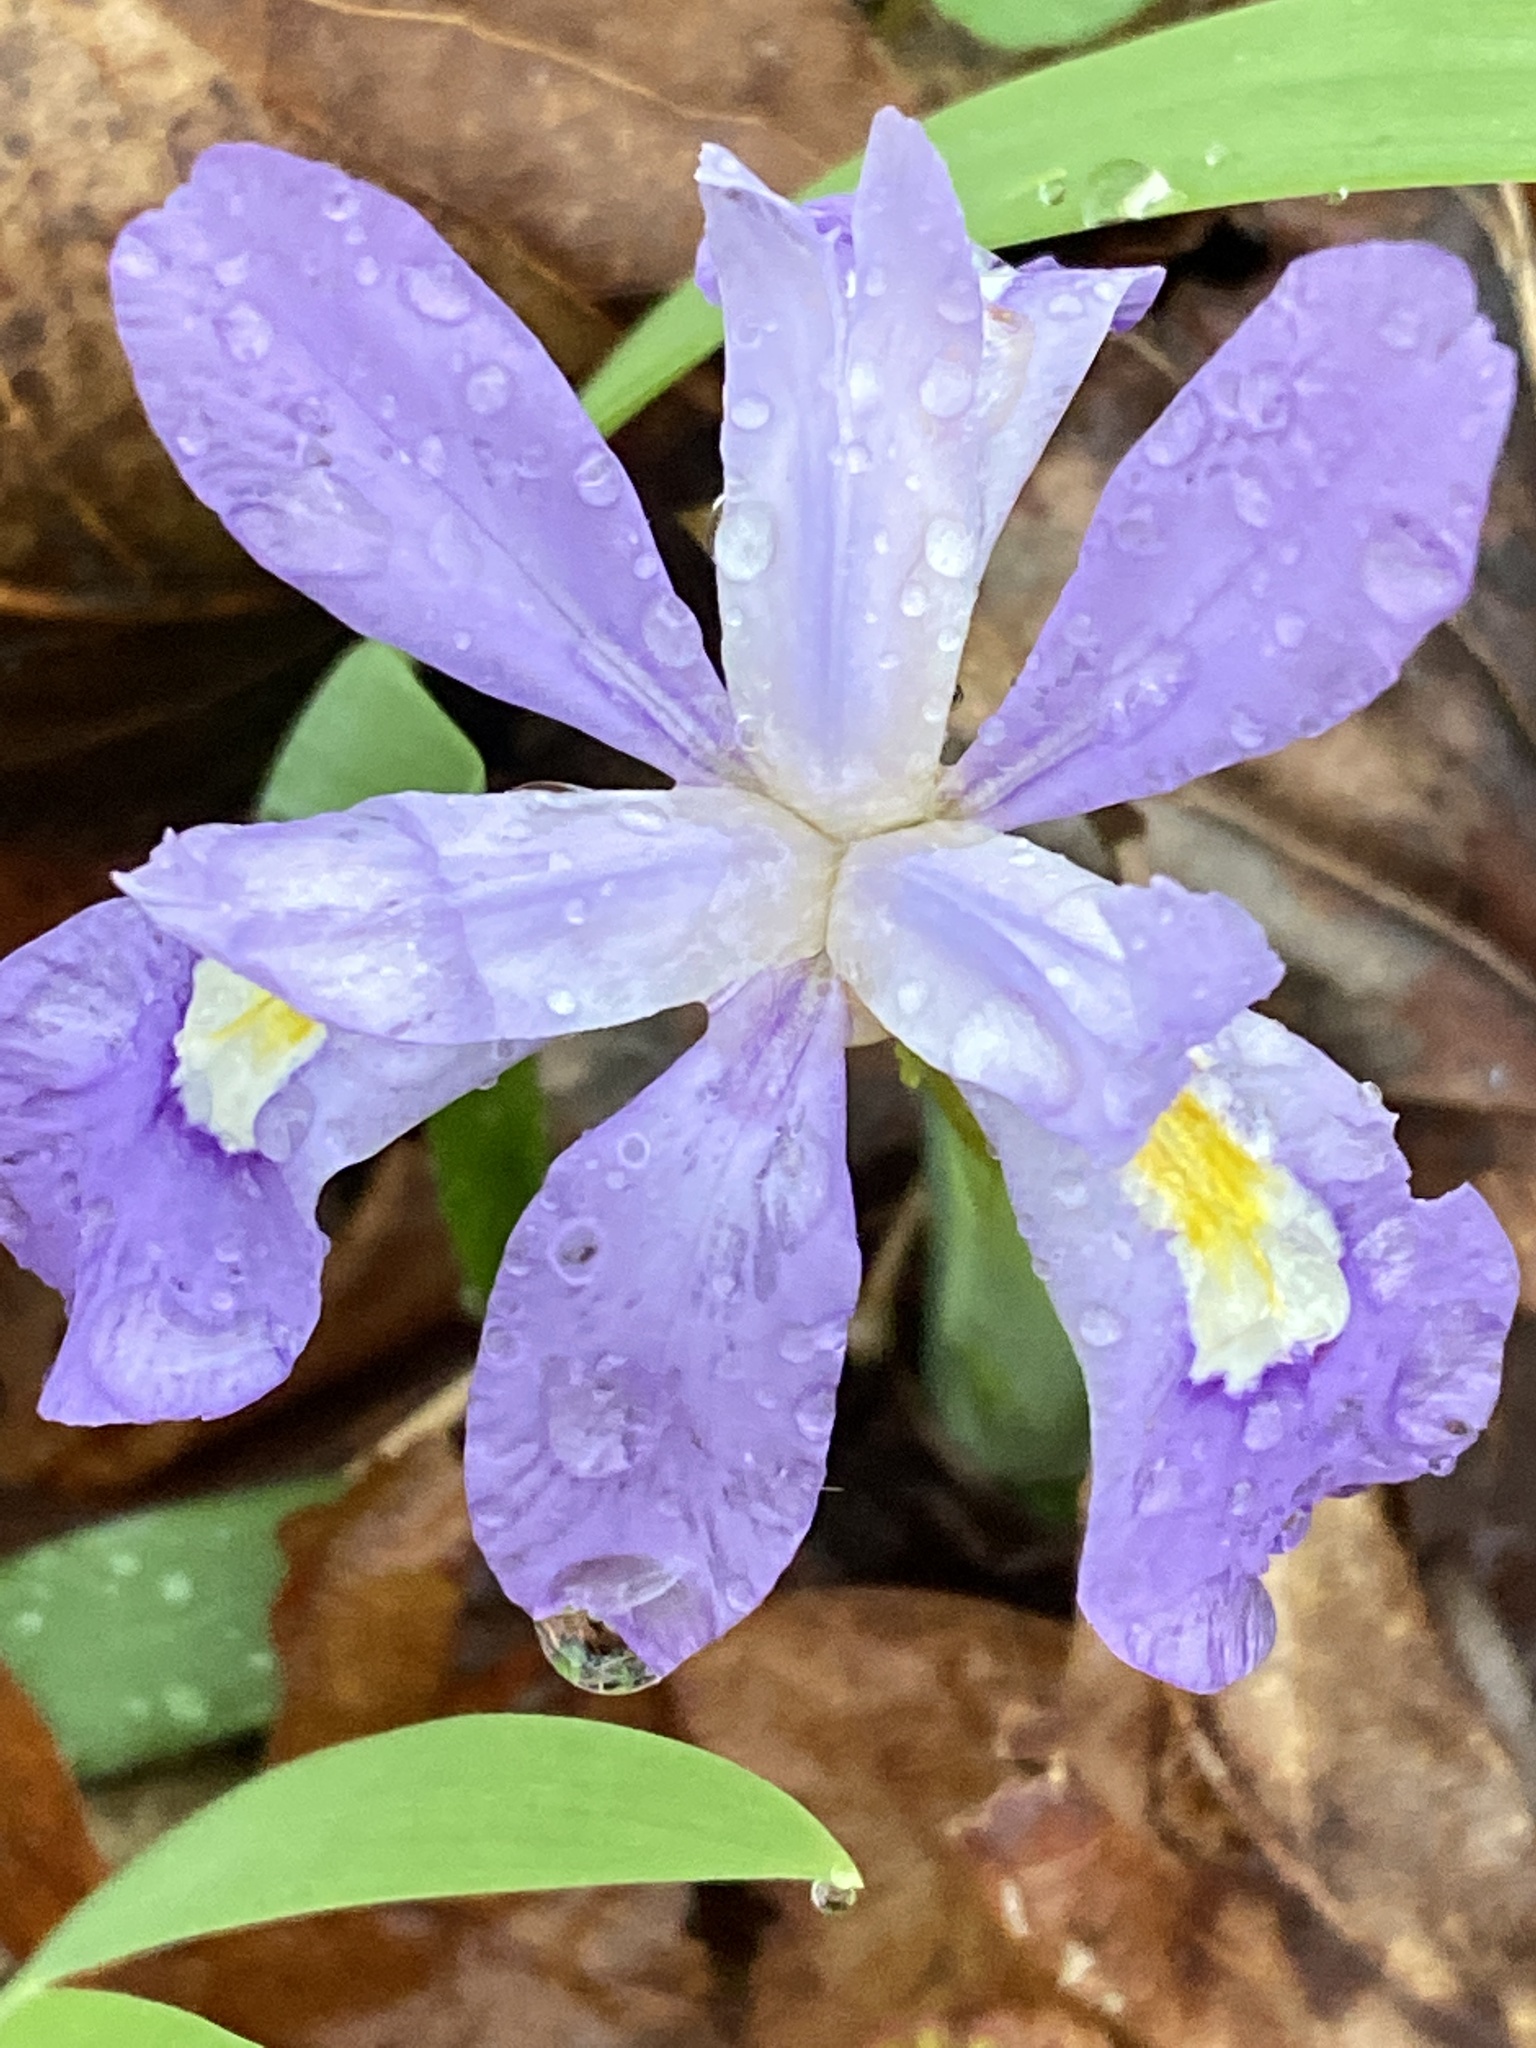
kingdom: Plantae
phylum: Tracheophyta
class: Liliopsida
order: Asparagales
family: Iridaceae
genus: Iris
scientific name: Iris cristata
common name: Crested iris
